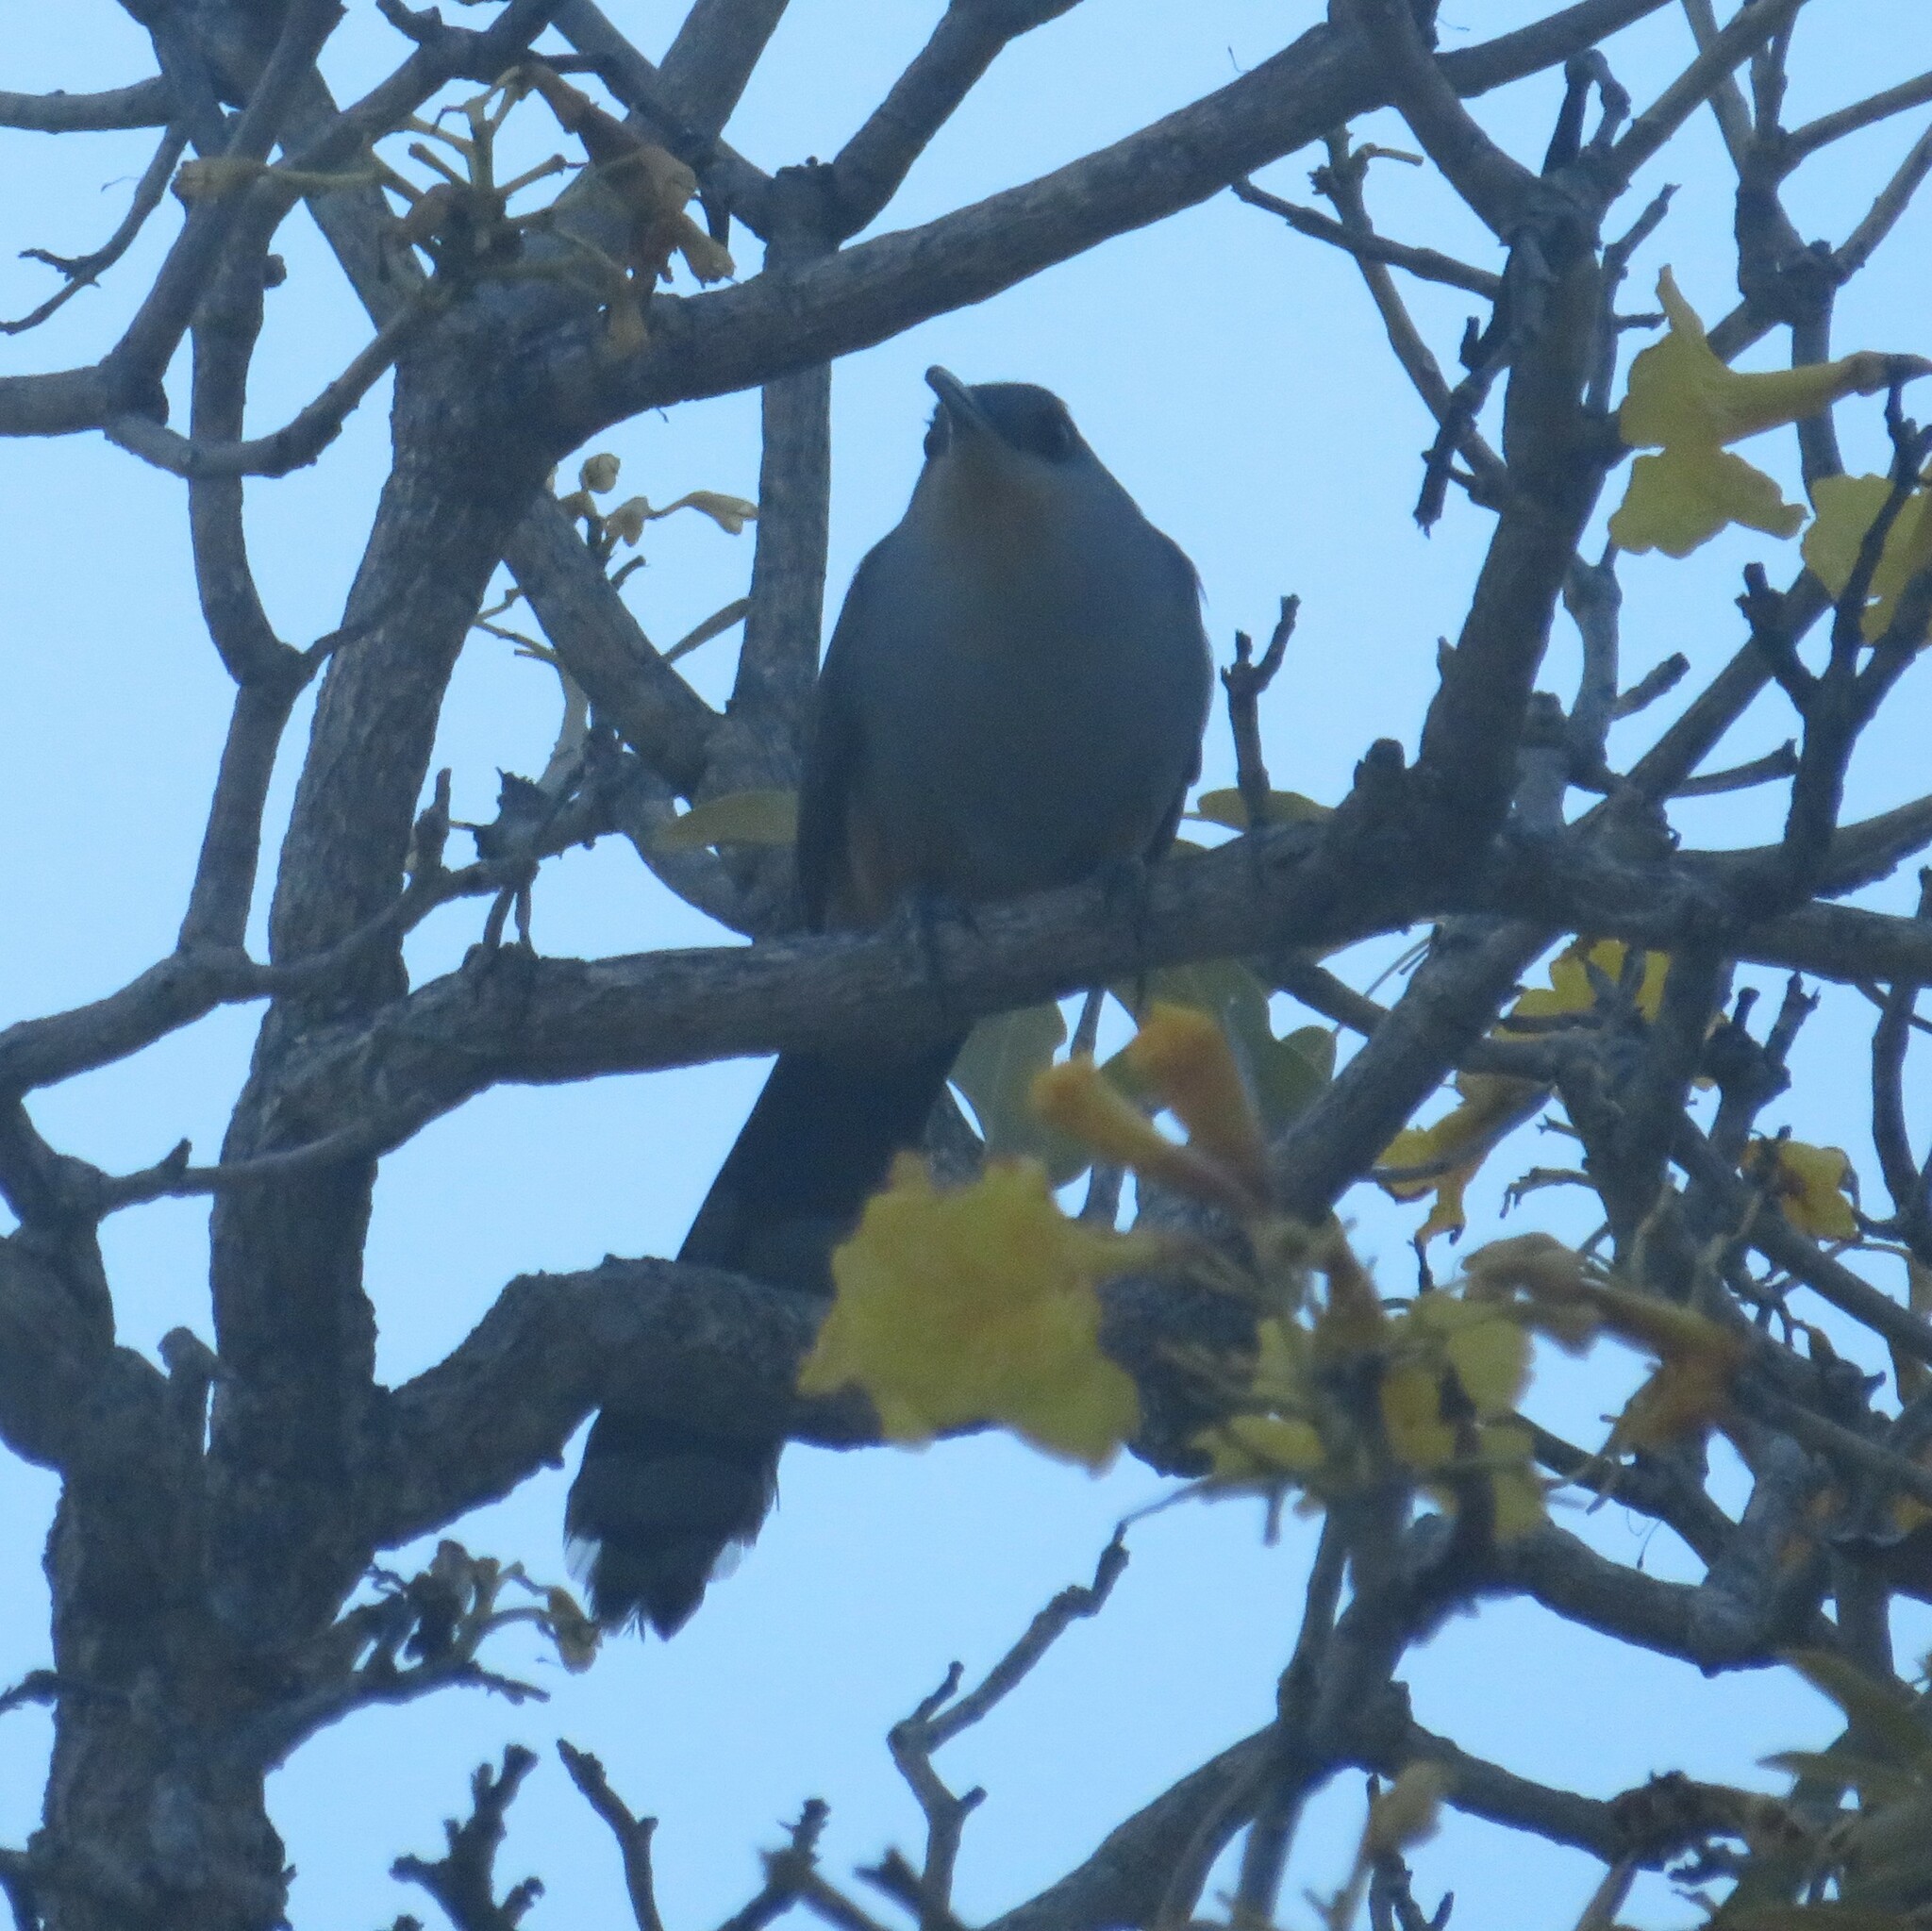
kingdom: Animalia
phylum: Chordata
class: Aves
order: Cuculiformes
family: Cuculidae
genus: Saurothera
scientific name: Saurothera longirostris
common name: Hispaniolan lizard-cuckoo
